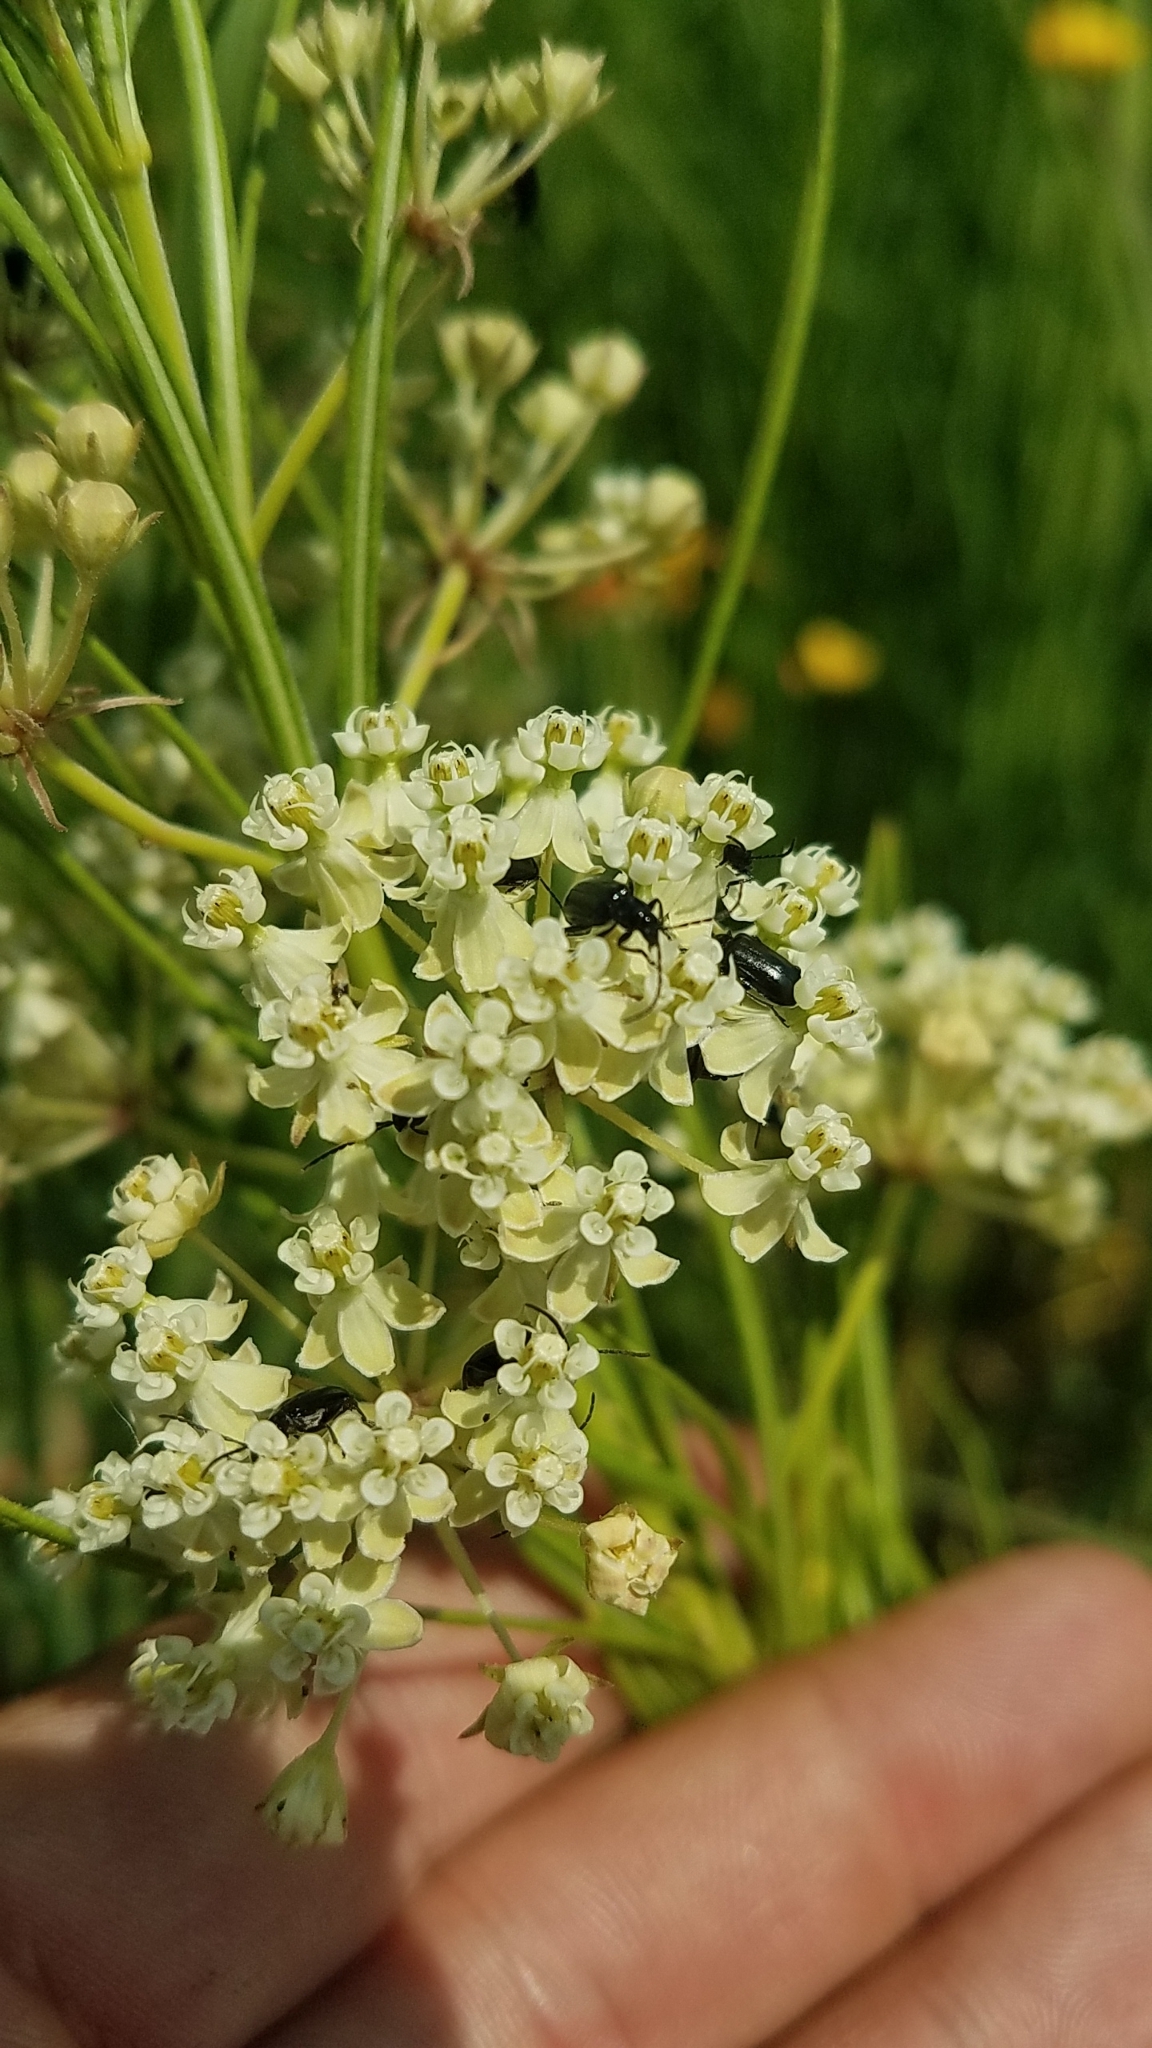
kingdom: Plantae
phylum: Tracheophyta
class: Magnoliopsida
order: Gentianales
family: Apocynaceae
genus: Asclepias
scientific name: Asclepias verticillata
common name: Eastern whorled milkweed
